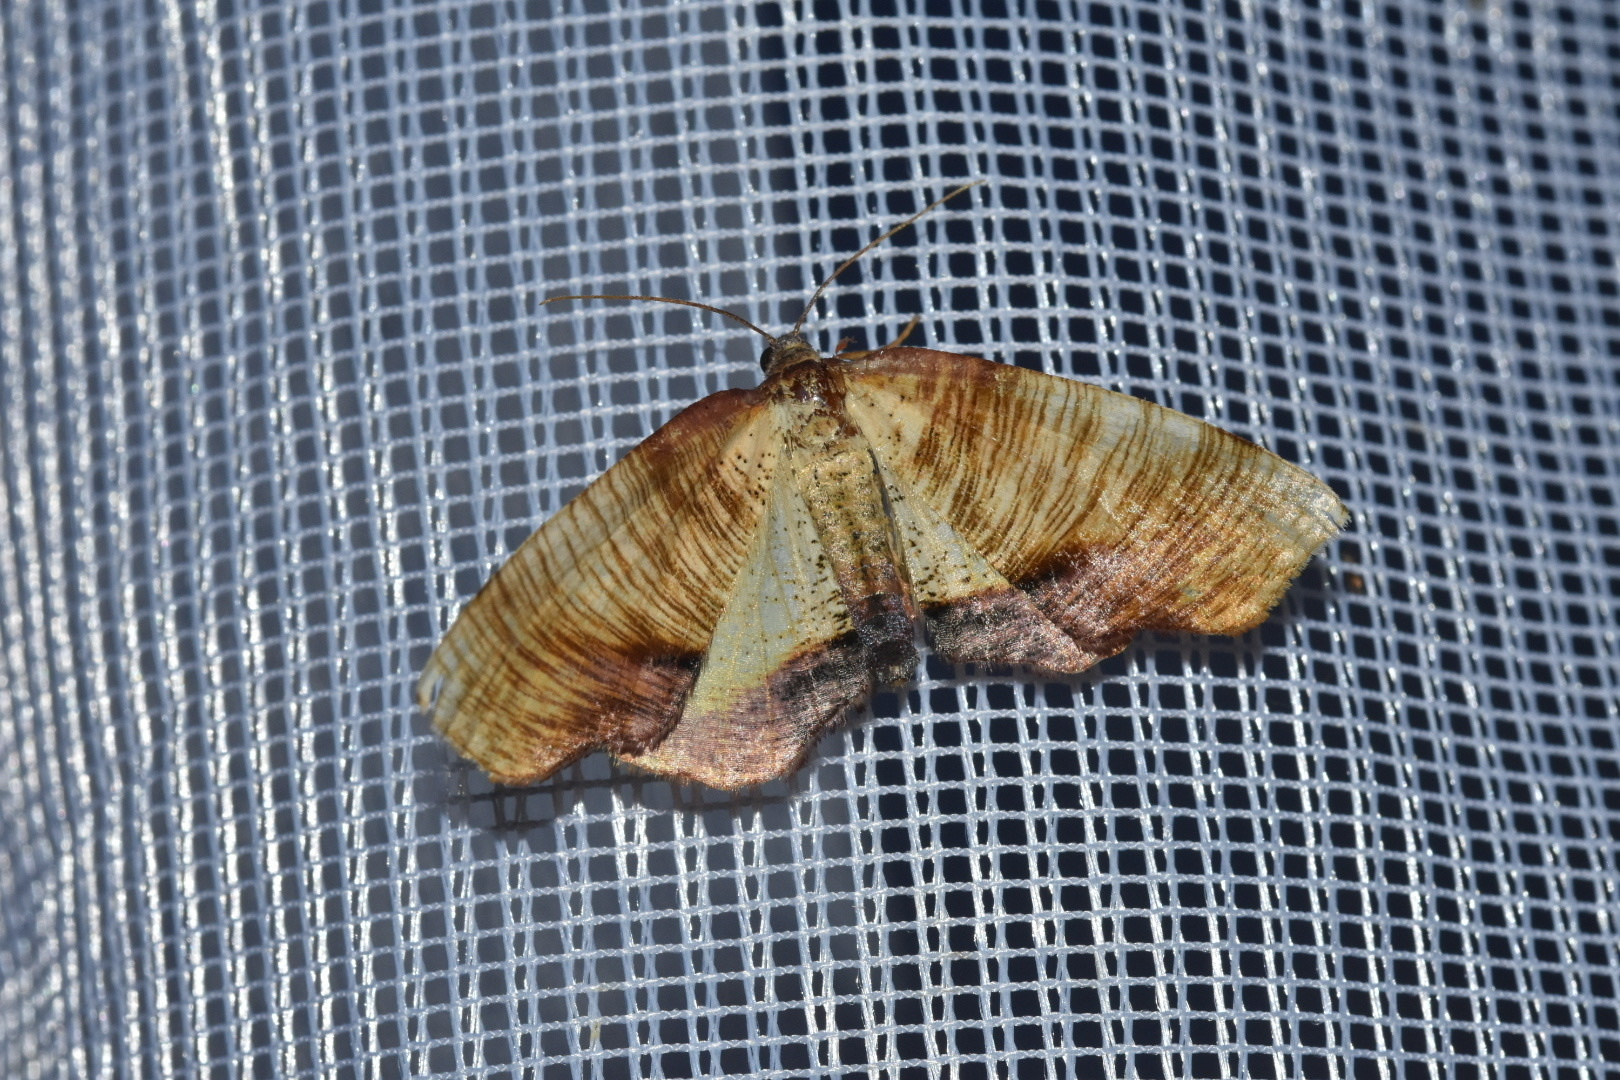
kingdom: Animalia
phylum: Arthropoda
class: Insecta
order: Lepidoptera
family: Geometridae
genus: Plagodis
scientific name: Plagodis dolabraria
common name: Scorched wing
